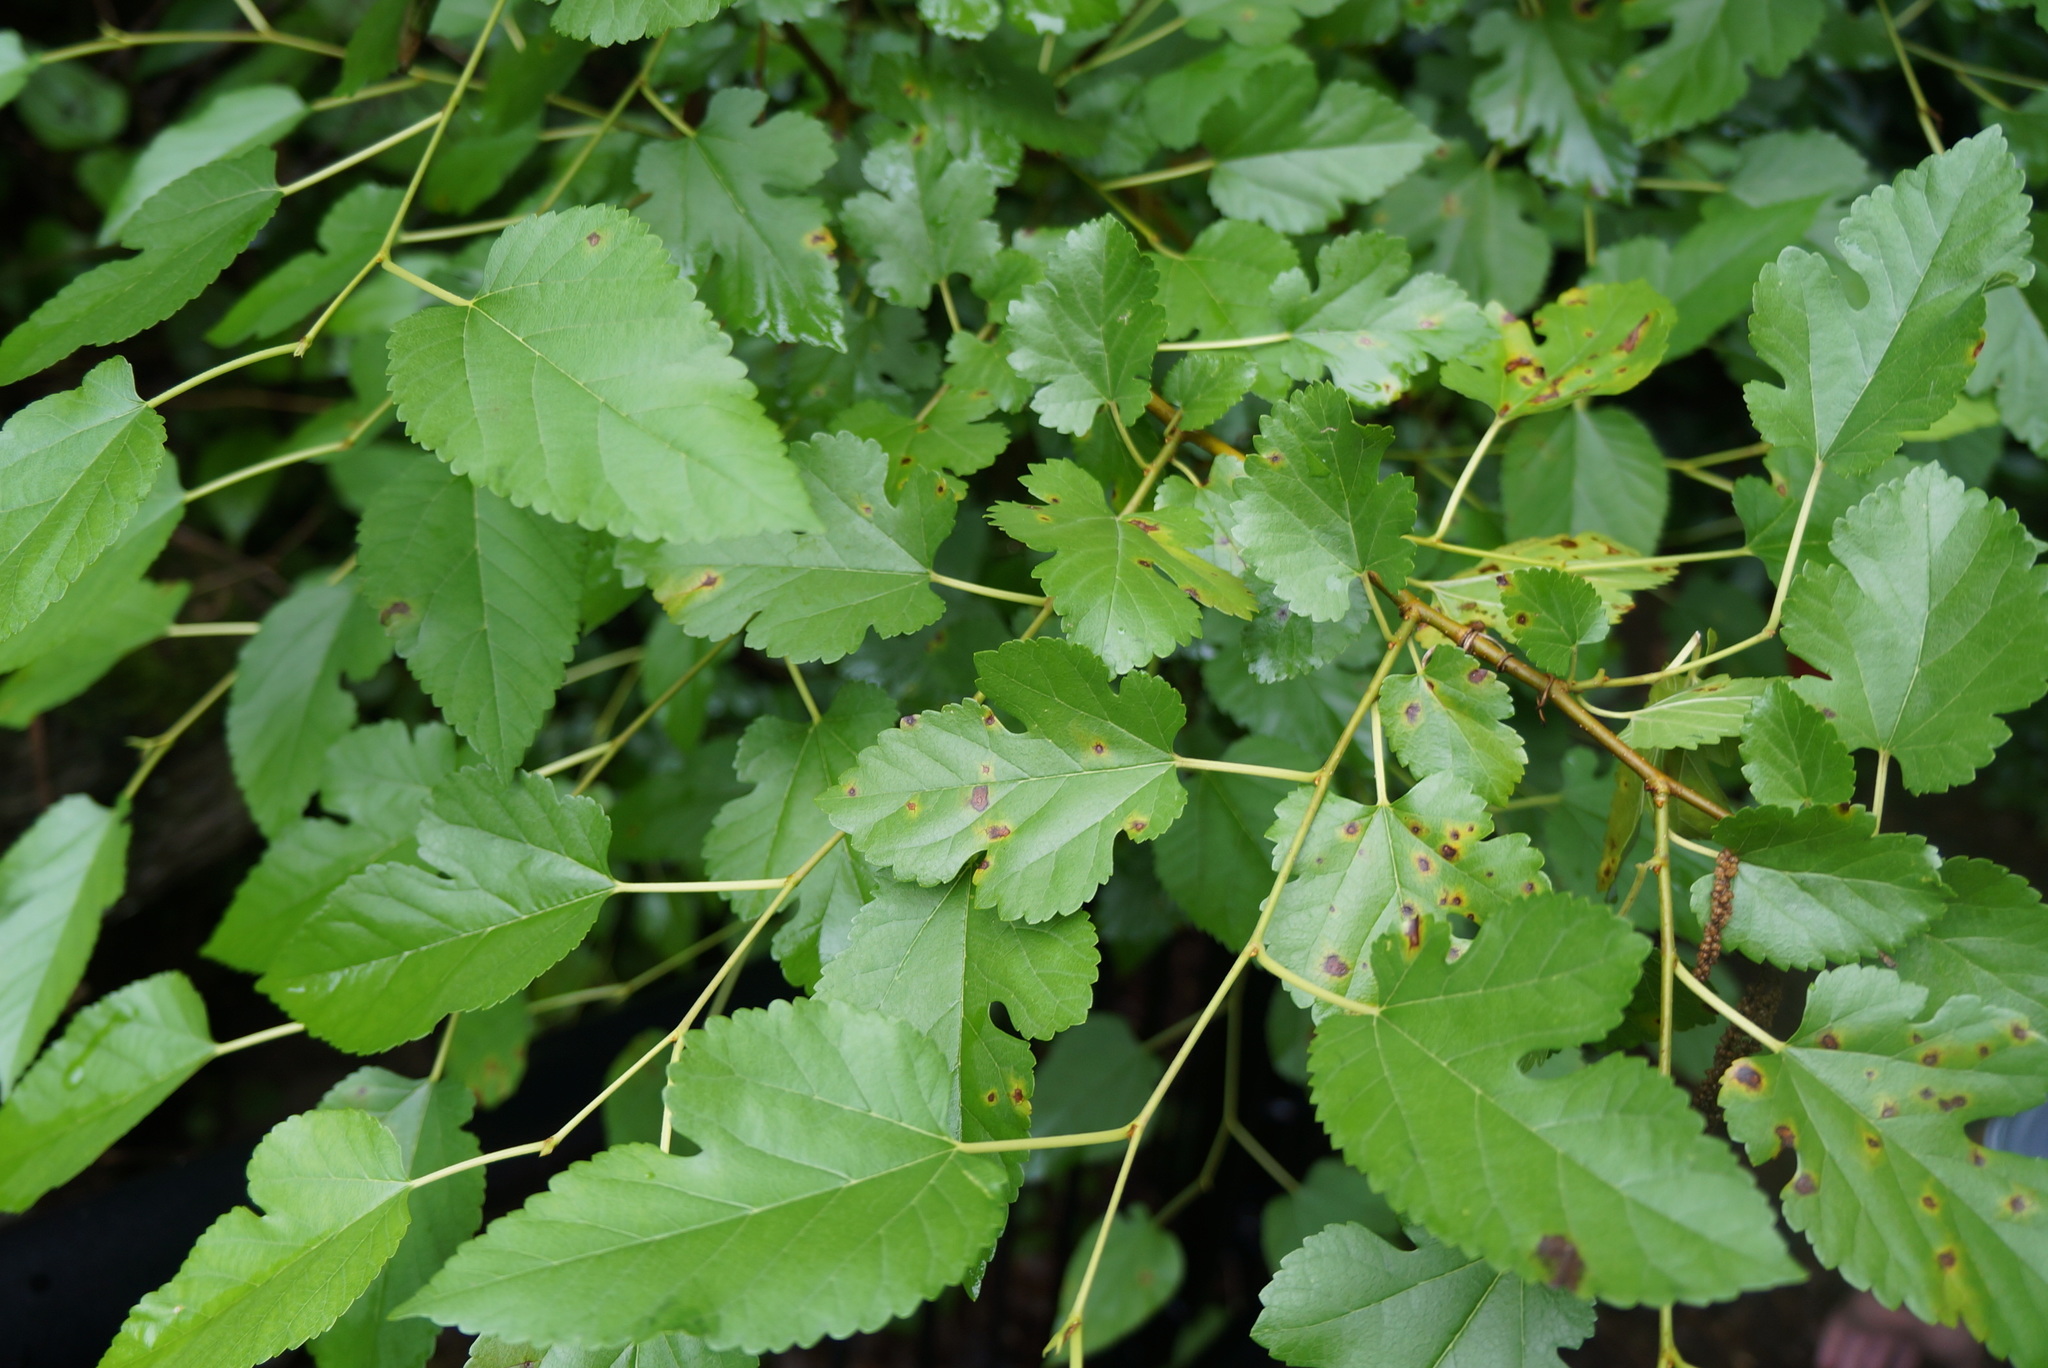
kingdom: Plantae
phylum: Tracheophyta
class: Magnoliopsida
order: Rosales
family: Moraceae
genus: Morus
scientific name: Morus alba
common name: White mulberry
